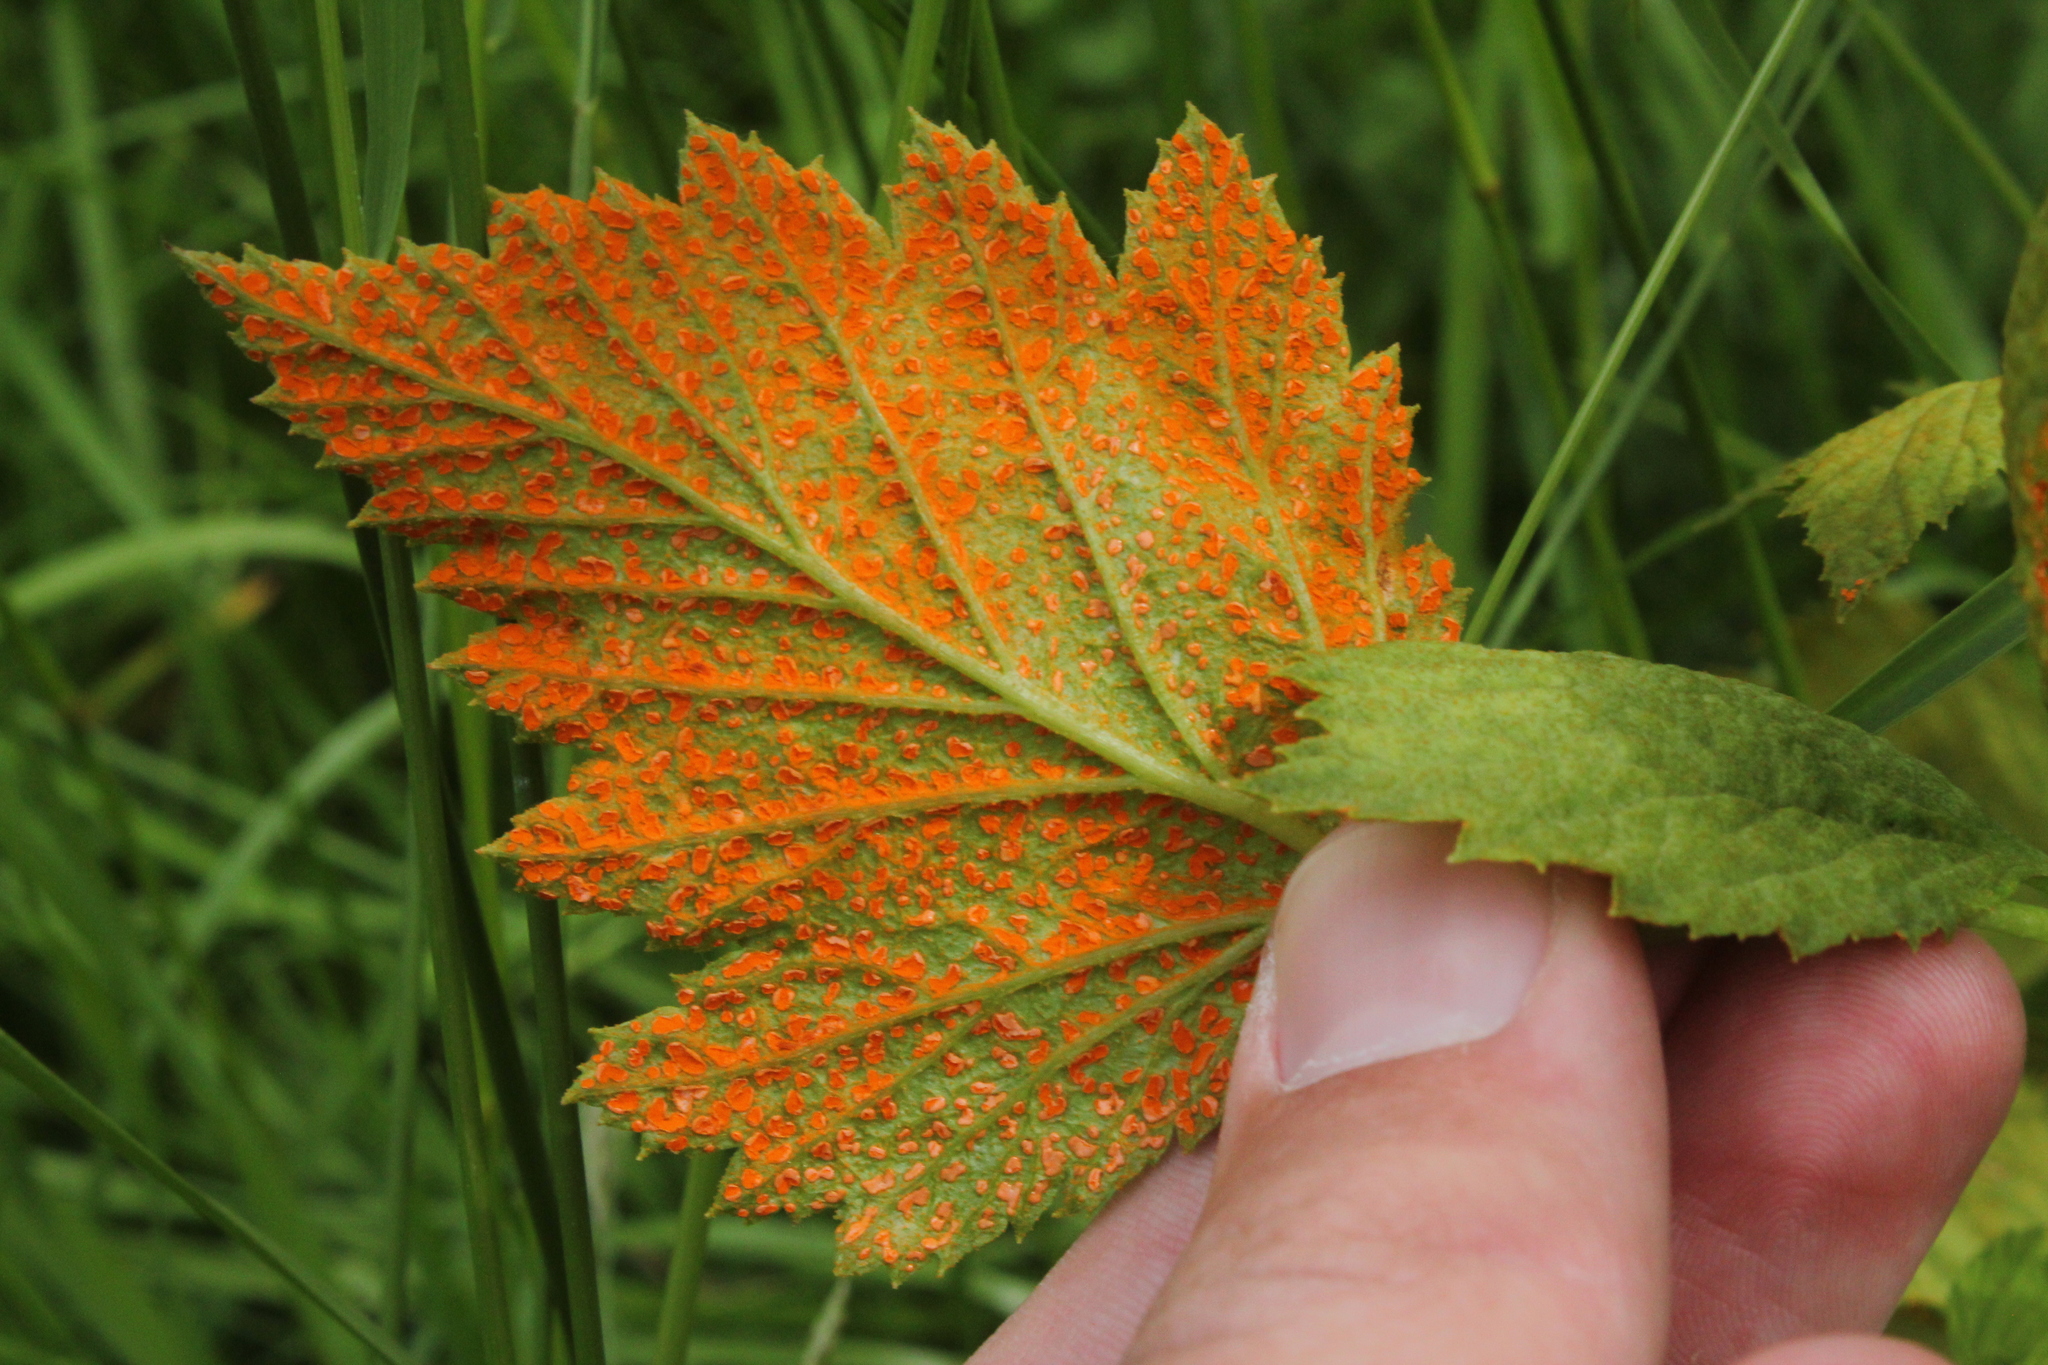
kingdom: Fungi
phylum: Basidiomycota
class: Pucciniomycetes
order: Pucciniales
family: Phragmidiaceae
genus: Arthuriomyces
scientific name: Arthuriomyces peckianus
